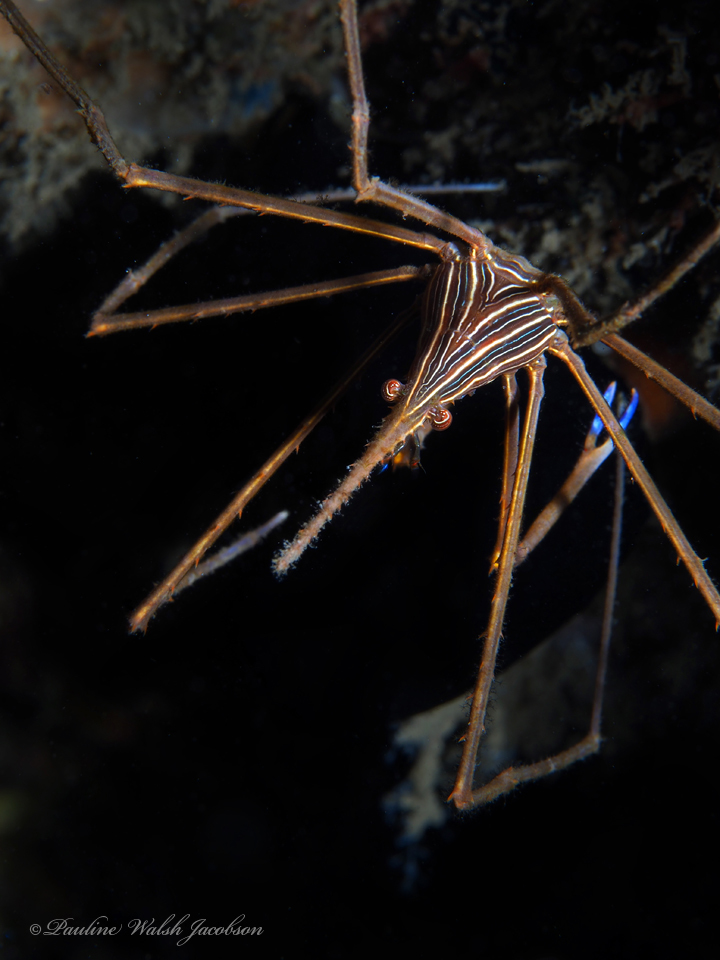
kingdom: Animalia
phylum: Arthropoda
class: Malacostraca
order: Decapoda
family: Inachoididae
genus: Stenorhynchus
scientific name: Stenorhynchus seticornis
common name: Arrow crab
